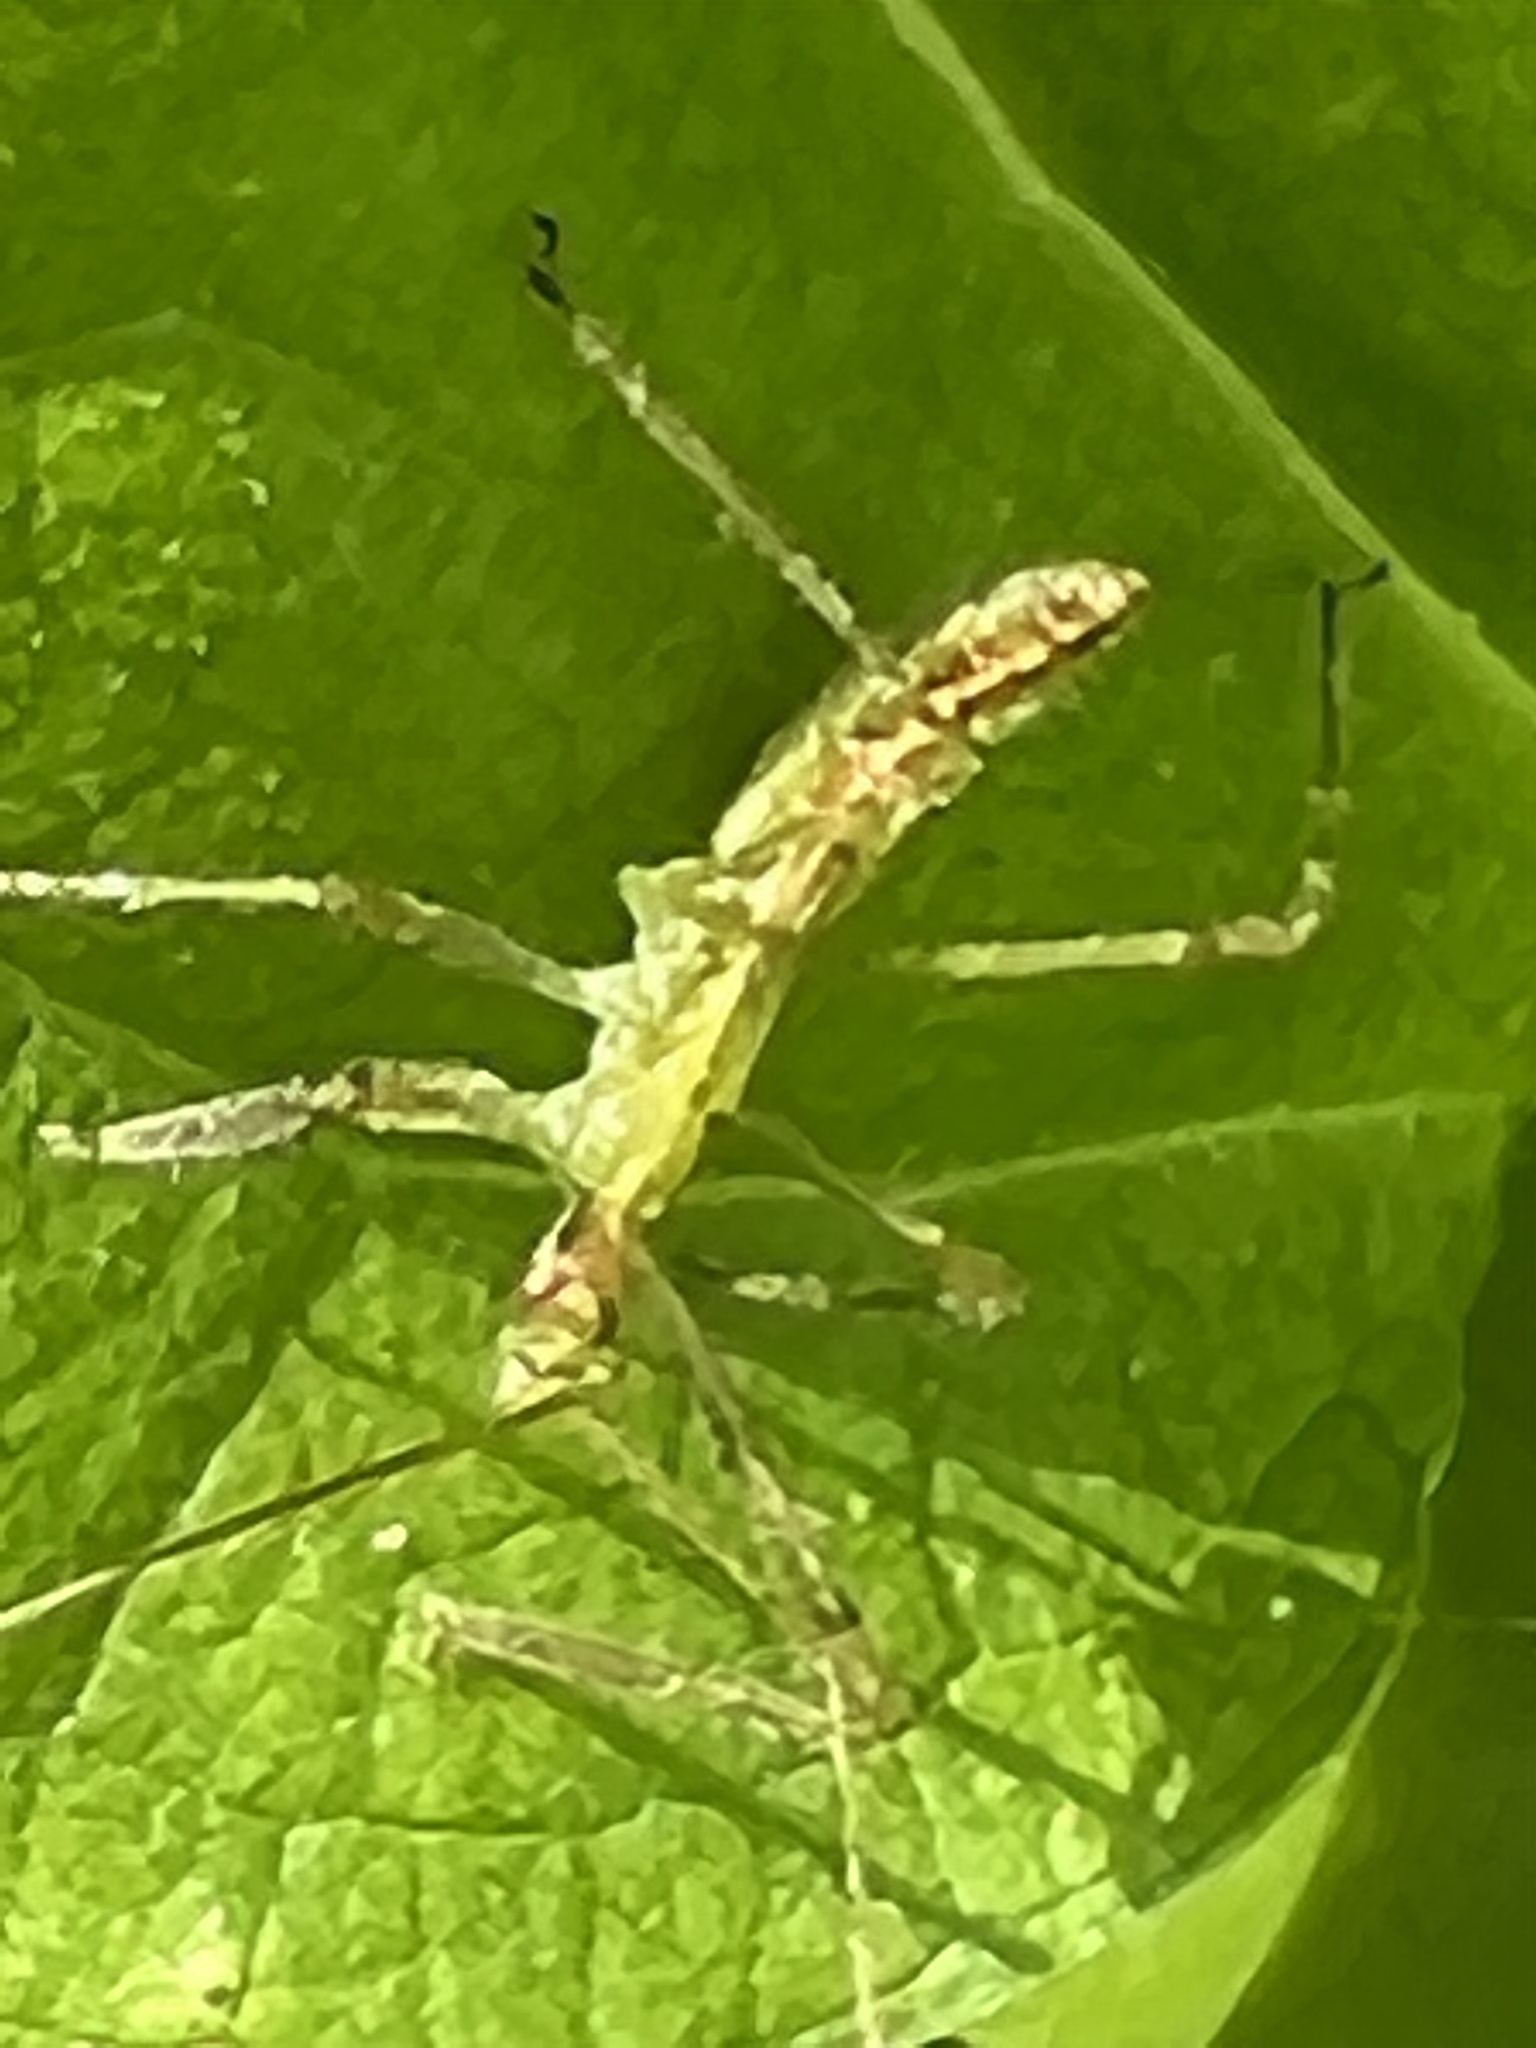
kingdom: Animalia
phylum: Arthropoda
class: Insecta
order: Hemiptera
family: Reduviidae
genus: Zelus
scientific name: Zelus luridus
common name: Pale green assassin bug
